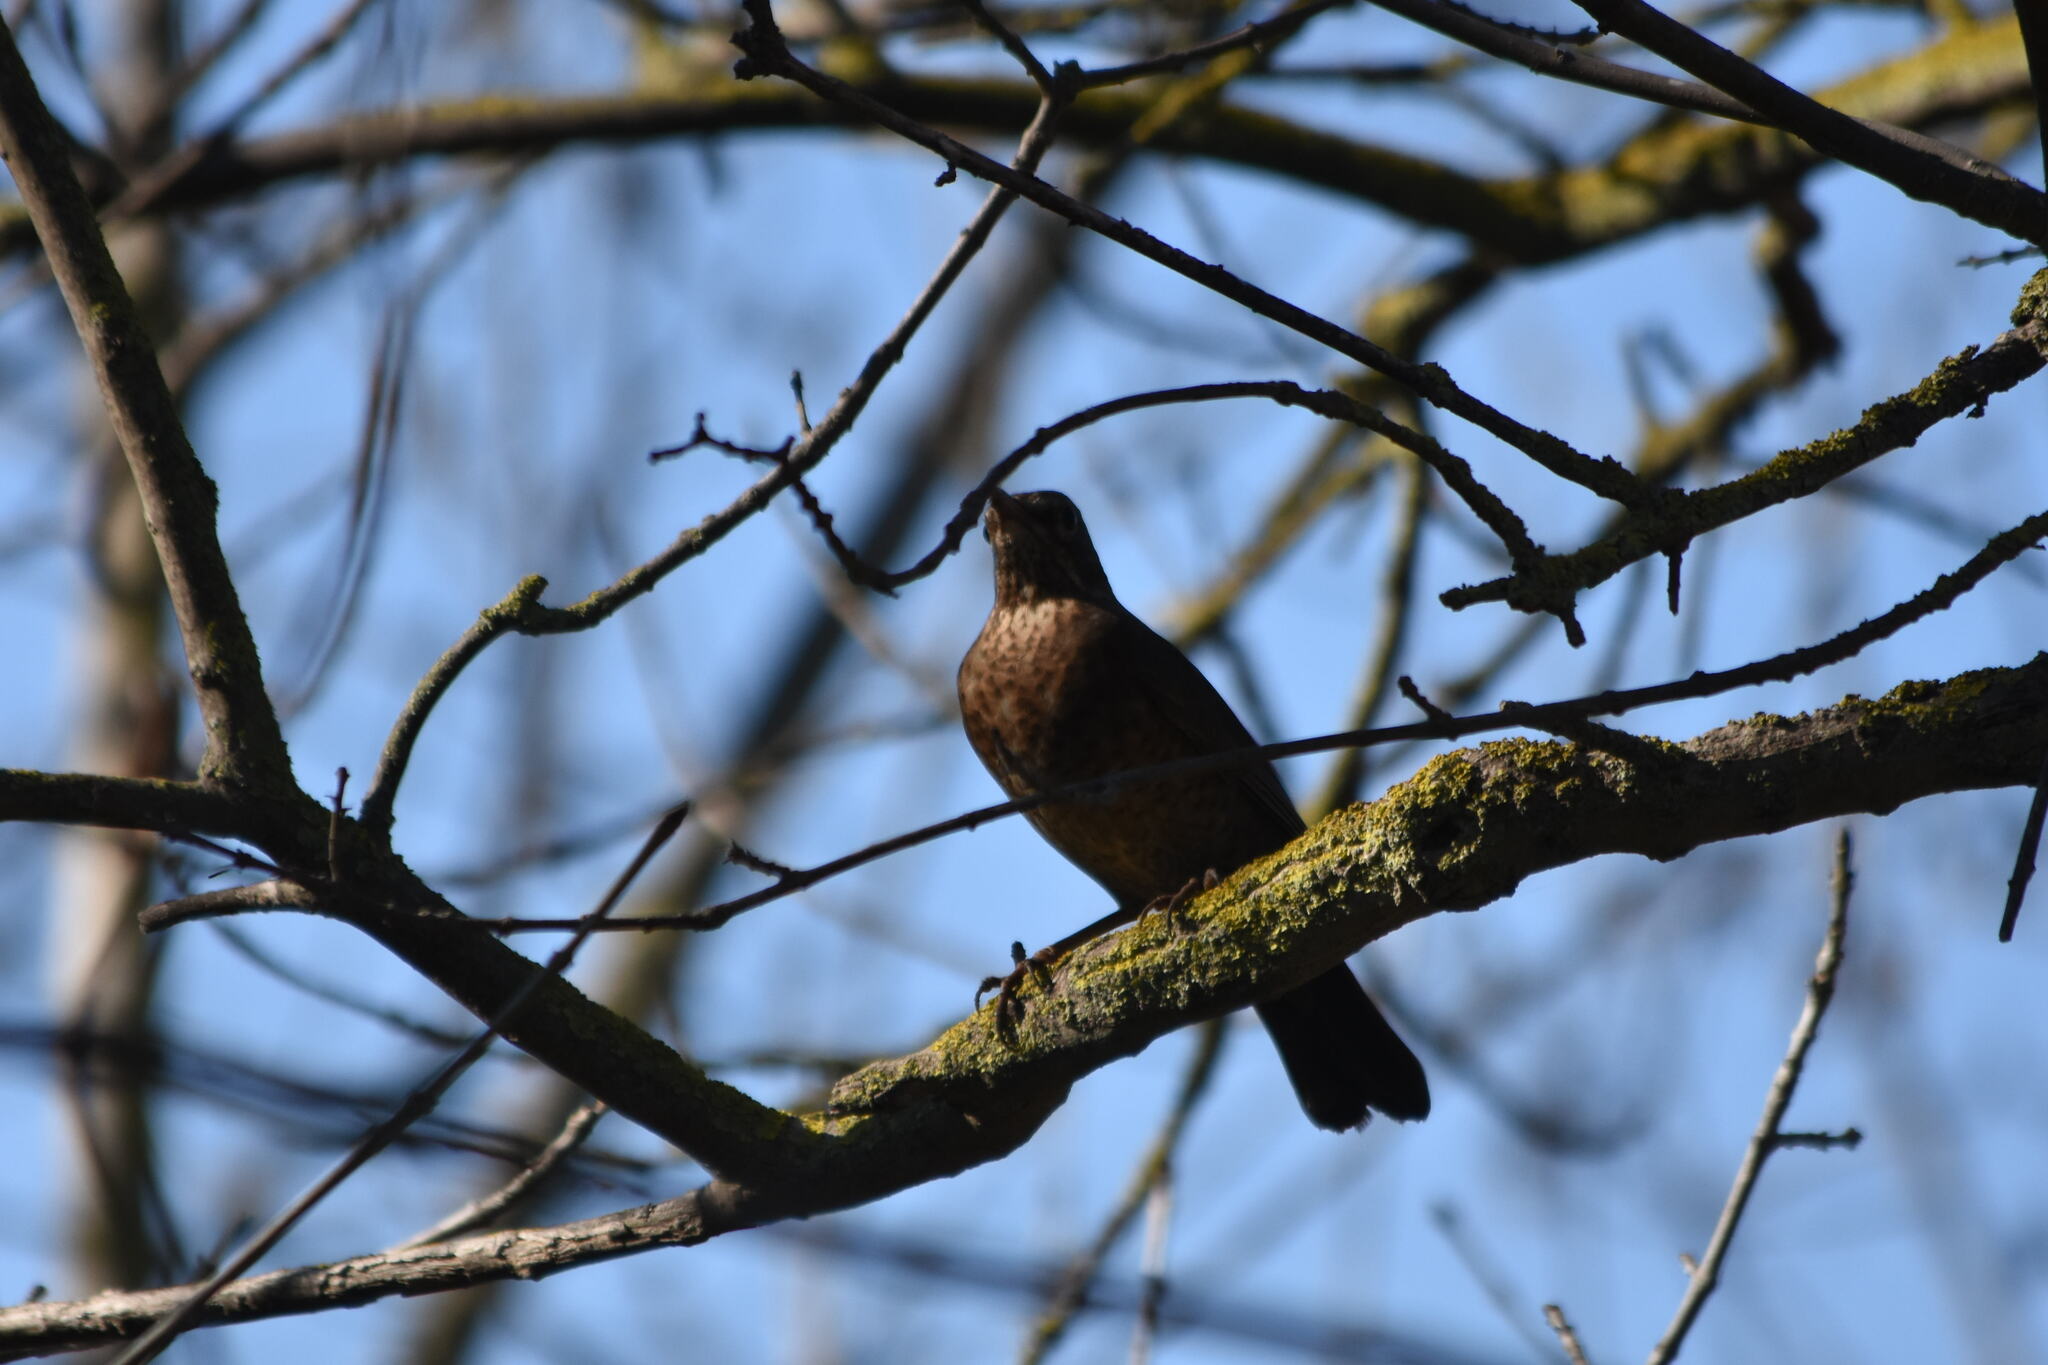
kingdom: Animalia
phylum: Chordata
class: Aves
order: Passeriformes
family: Turdidae
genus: Turdus
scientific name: Turdus merula
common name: Common blackbird
